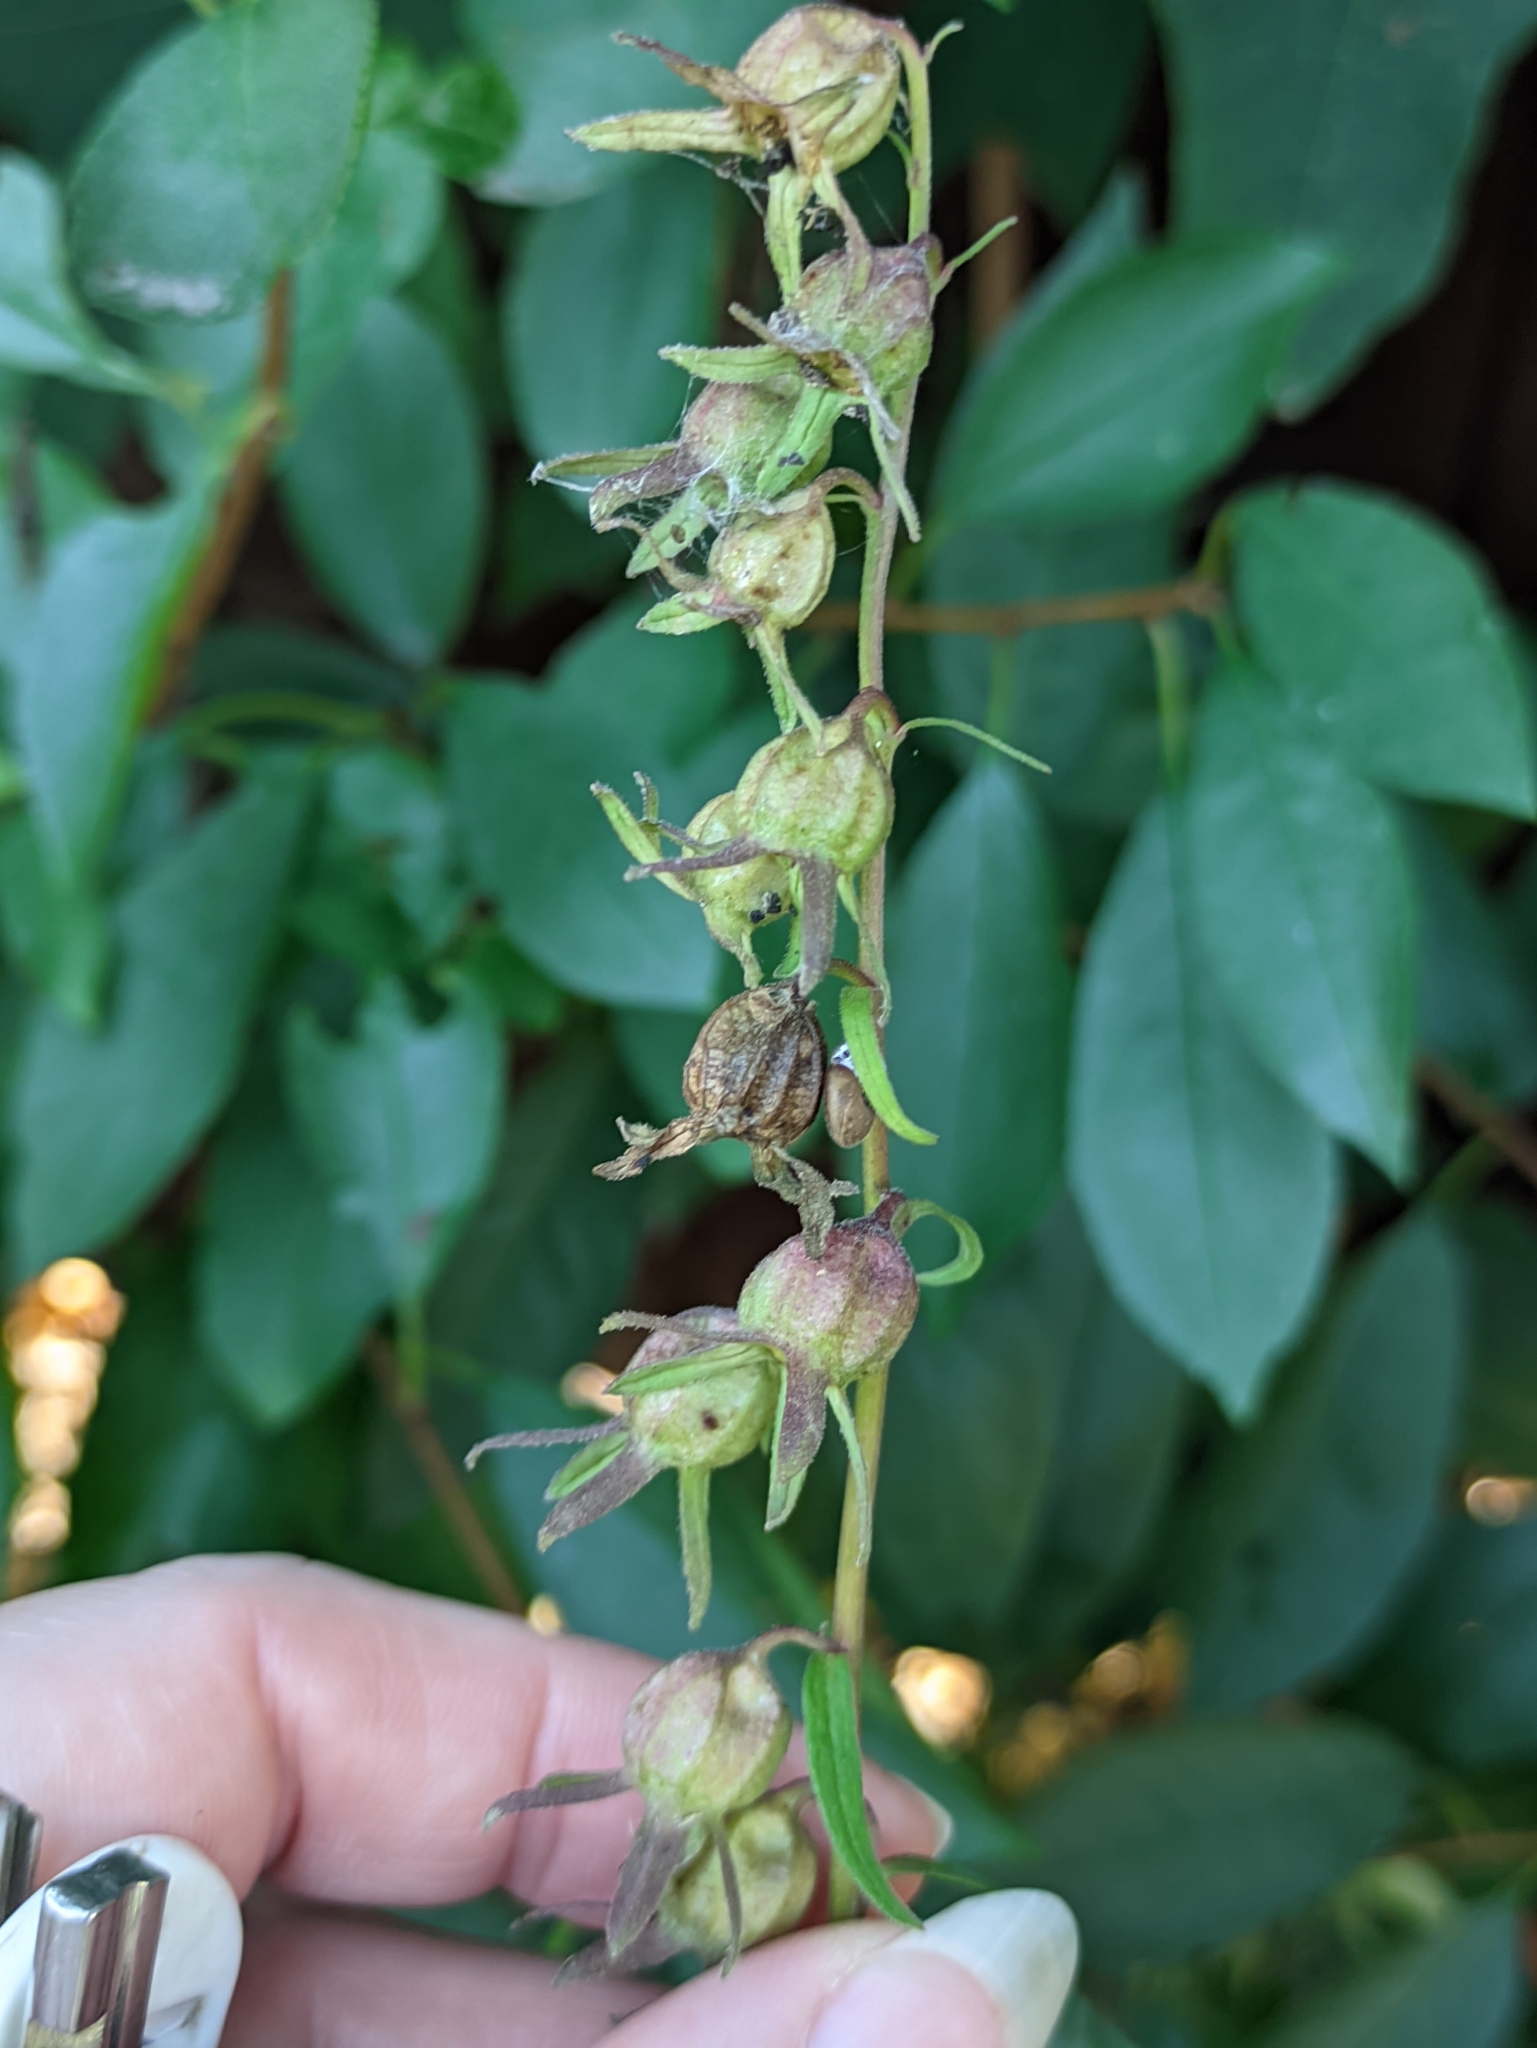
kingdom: Plantae
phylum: Tracheophyta
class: Magnoliopsida
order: Asterales
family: Campanulaceae
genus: Campanula
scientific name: Campanula rapunculoides
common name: Creeping bellflower
